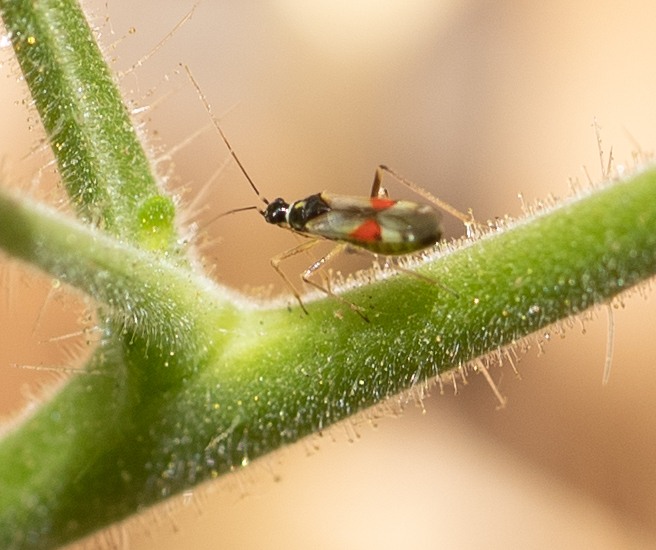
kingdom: Animalia
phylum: Arthropoda
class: Insecta
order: Hemiptera
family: Miridae
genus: Tupiocoris
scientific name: Tupiocoris californicus
